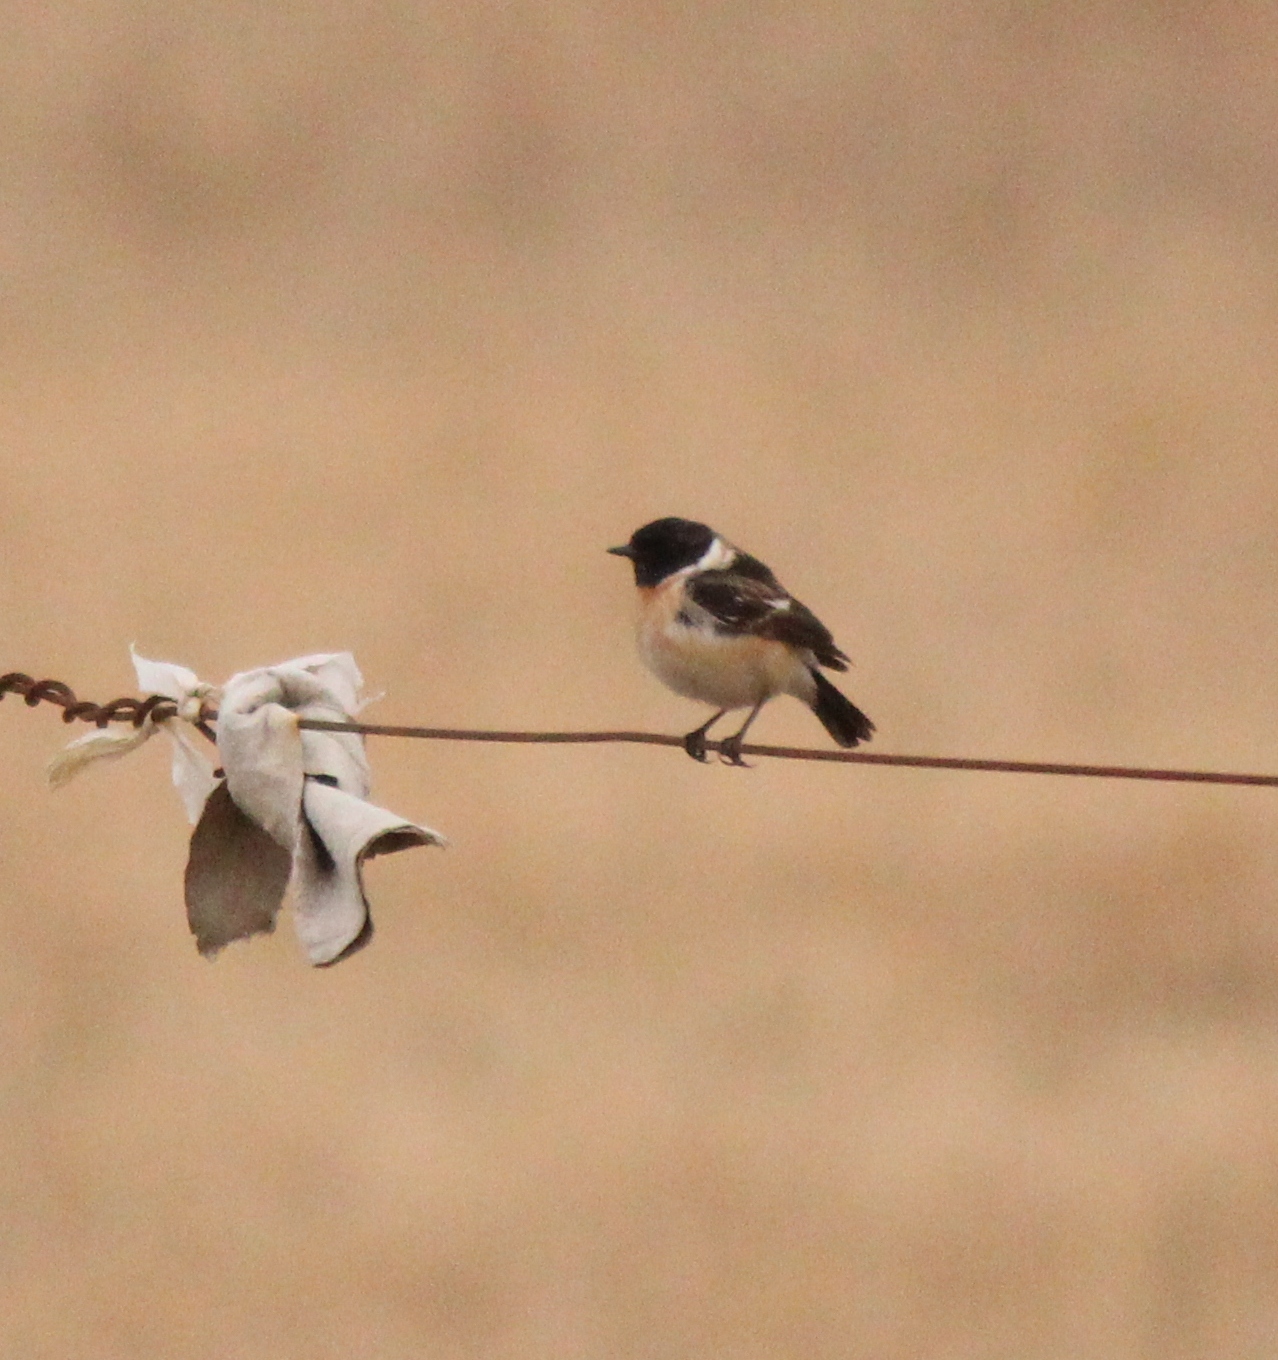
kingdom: Animalia
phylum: Chordata
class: Aves
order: Passeriformes
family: Muscicapidae
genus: Saxicola
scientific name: Saxicola maurus
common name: Siberian stonechat
